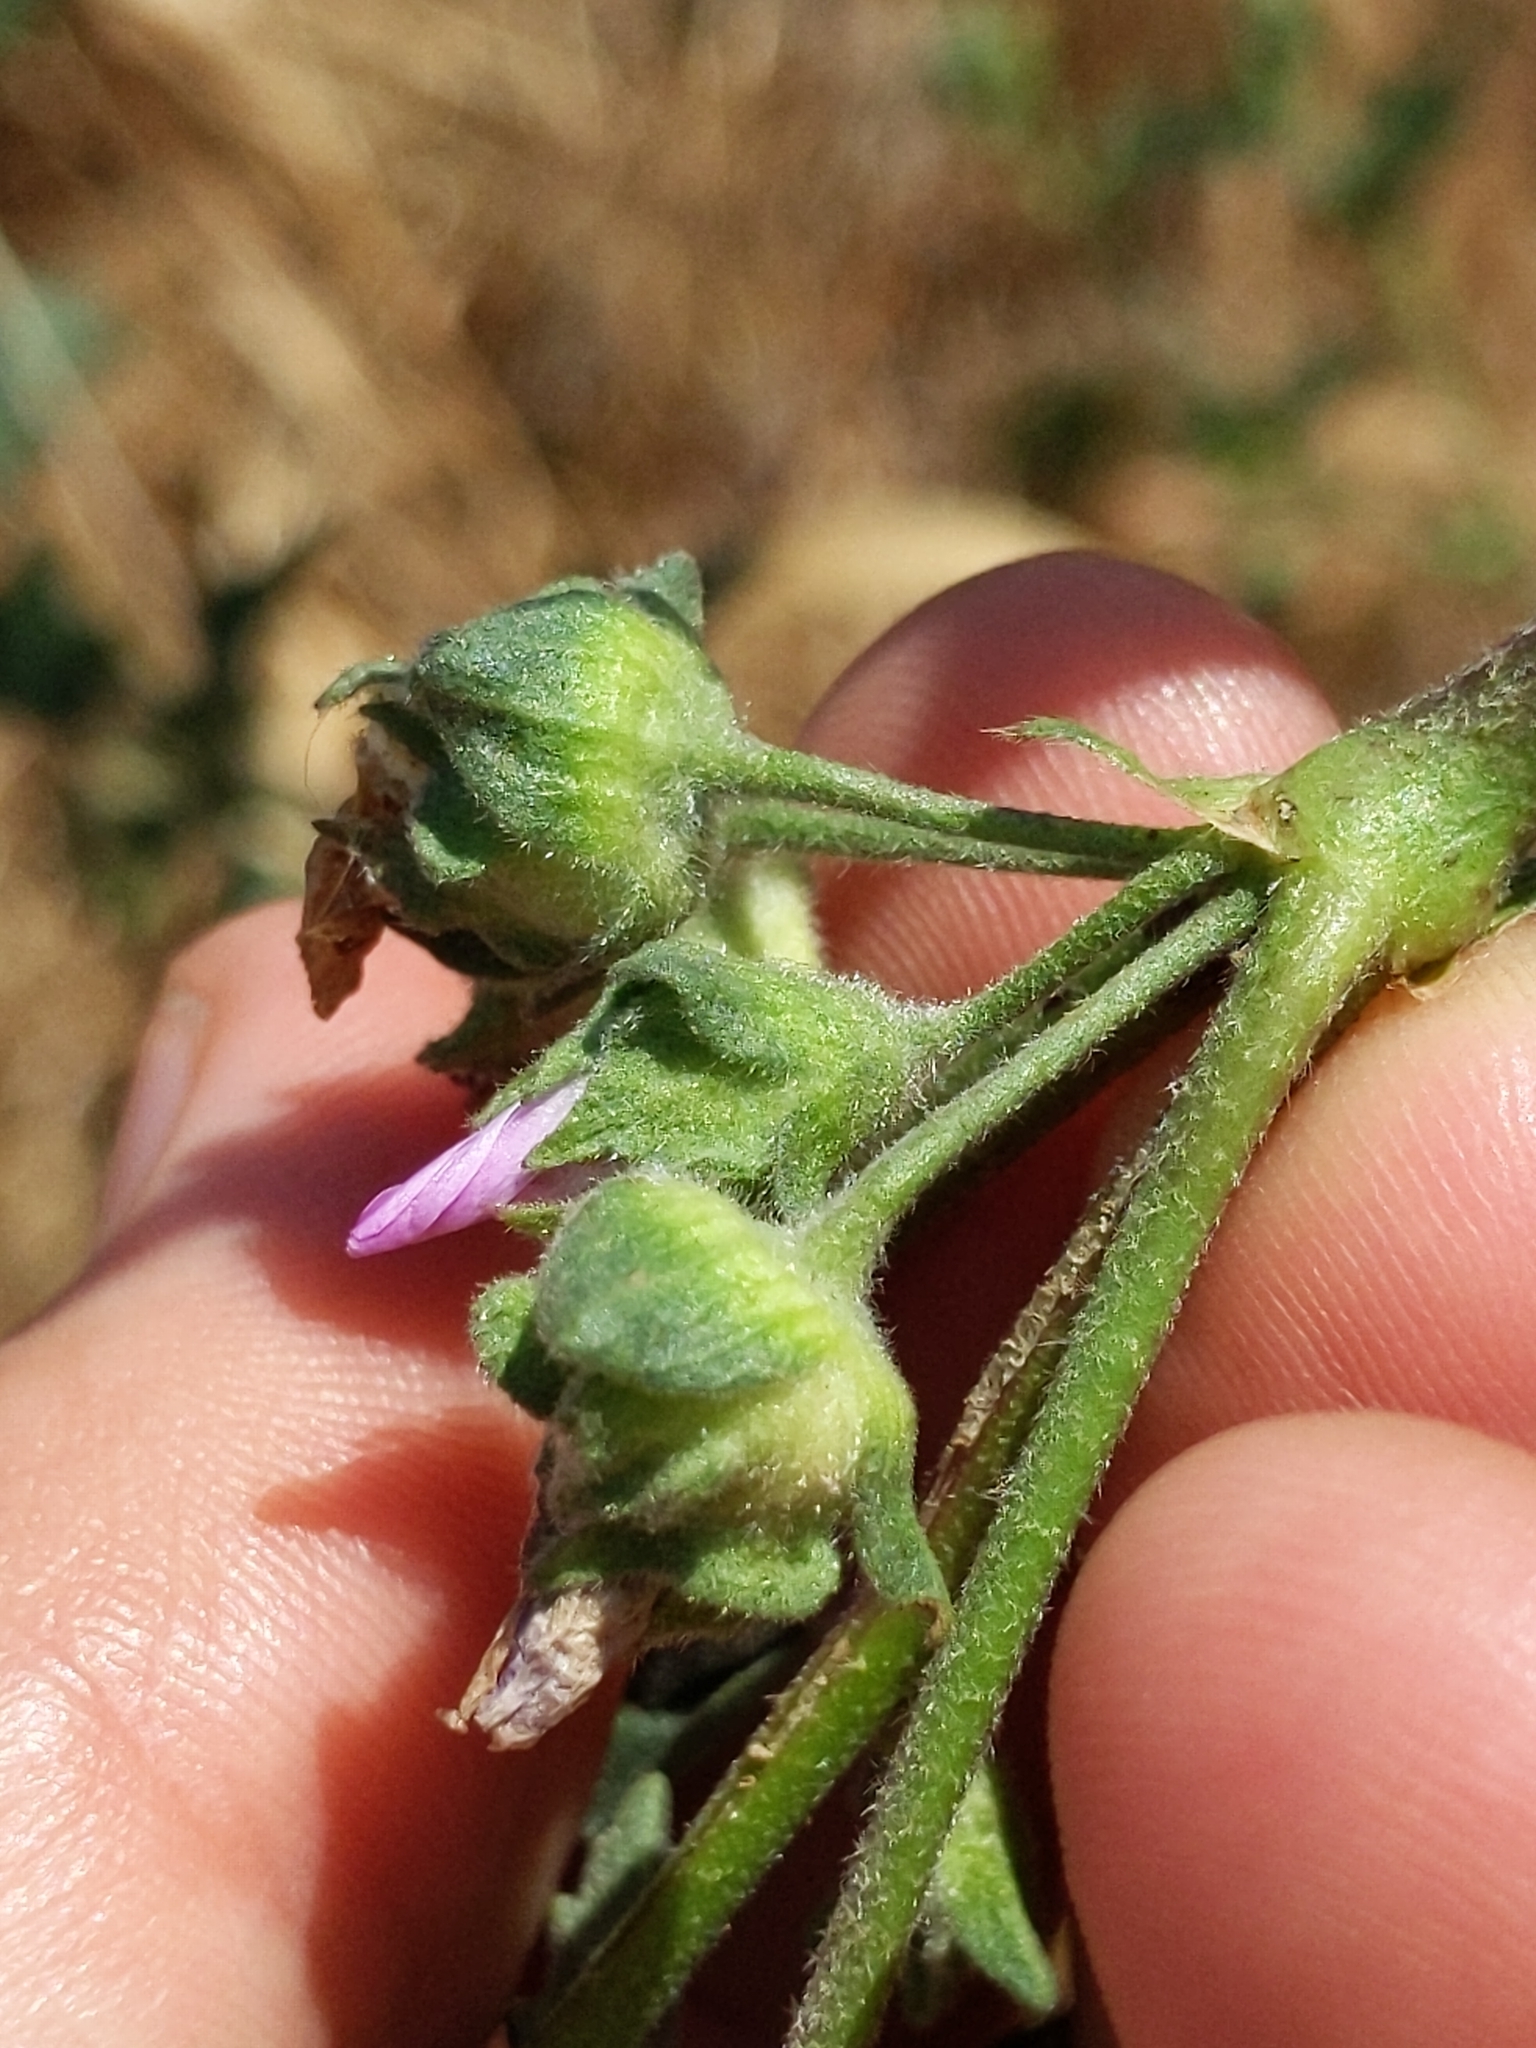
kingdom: Plantae
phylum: Tracheophyta
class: Magnoliopsida
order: Malvales
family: Malvaceae
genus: Malva
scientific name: Malva multiflora
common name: Cheeseweed
